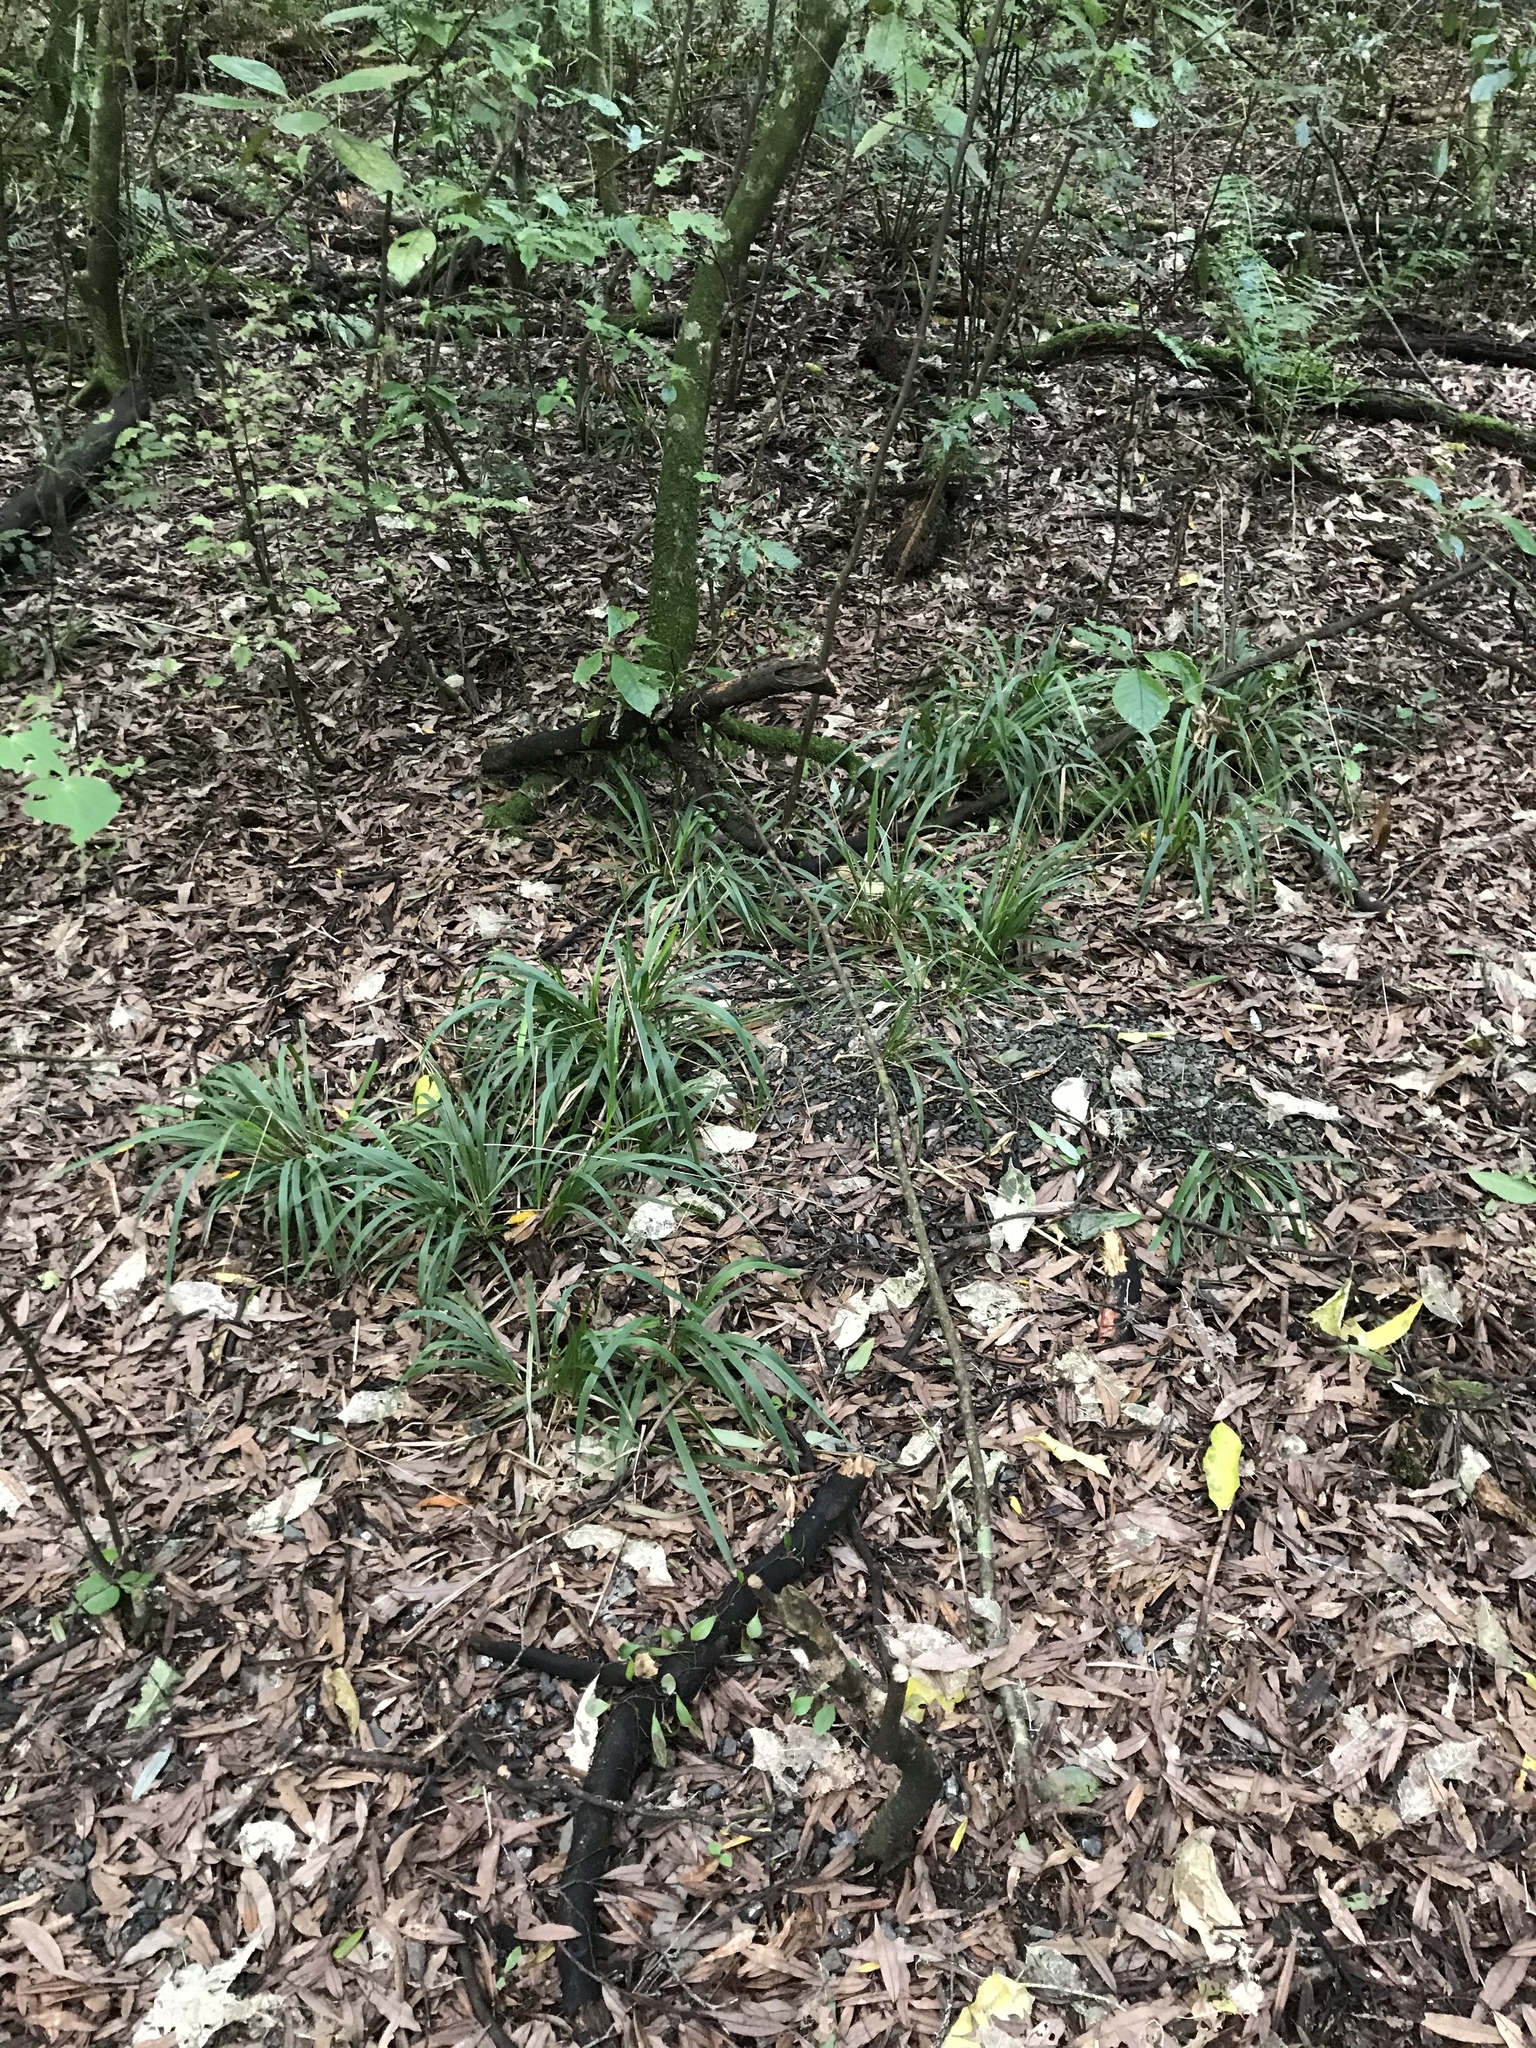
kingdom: Plantae
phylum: Tracheophyta
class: Liliopsida
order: Poales
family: Poaceae
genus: Ehrharta
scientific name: Ehrharta diplax
